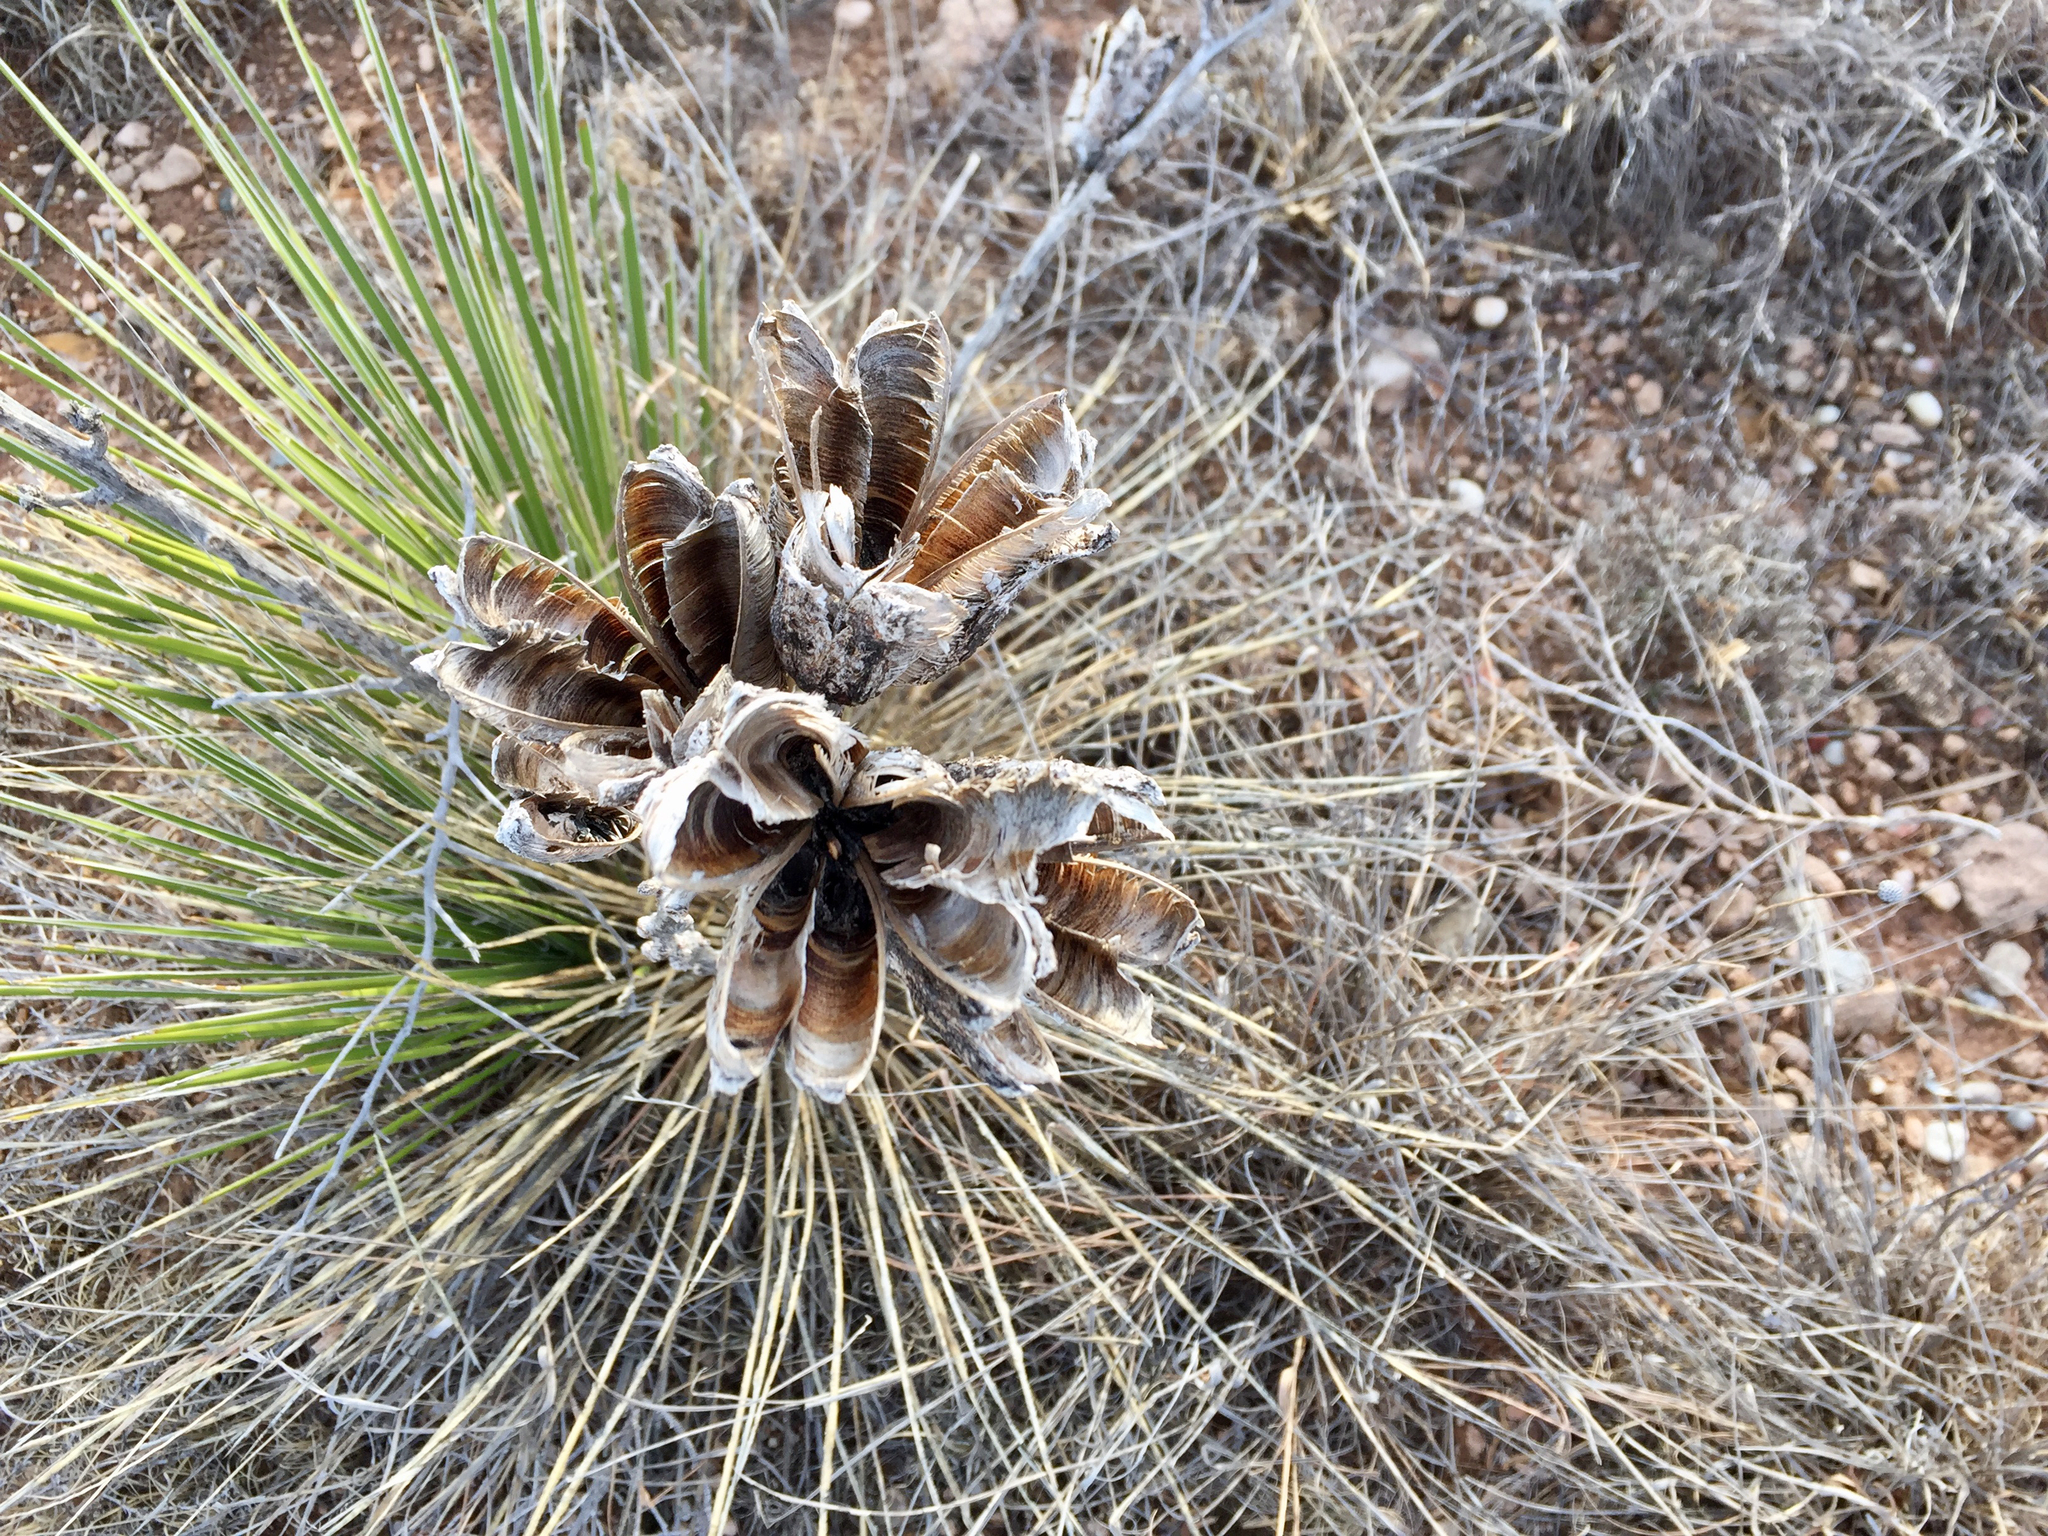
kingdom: Plantae
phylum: Tracheophyta
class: Liliopsida
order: Asparagales
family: Asparagaceae
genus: Yucca
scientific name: Yucca glauca
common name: Great plains yucca
